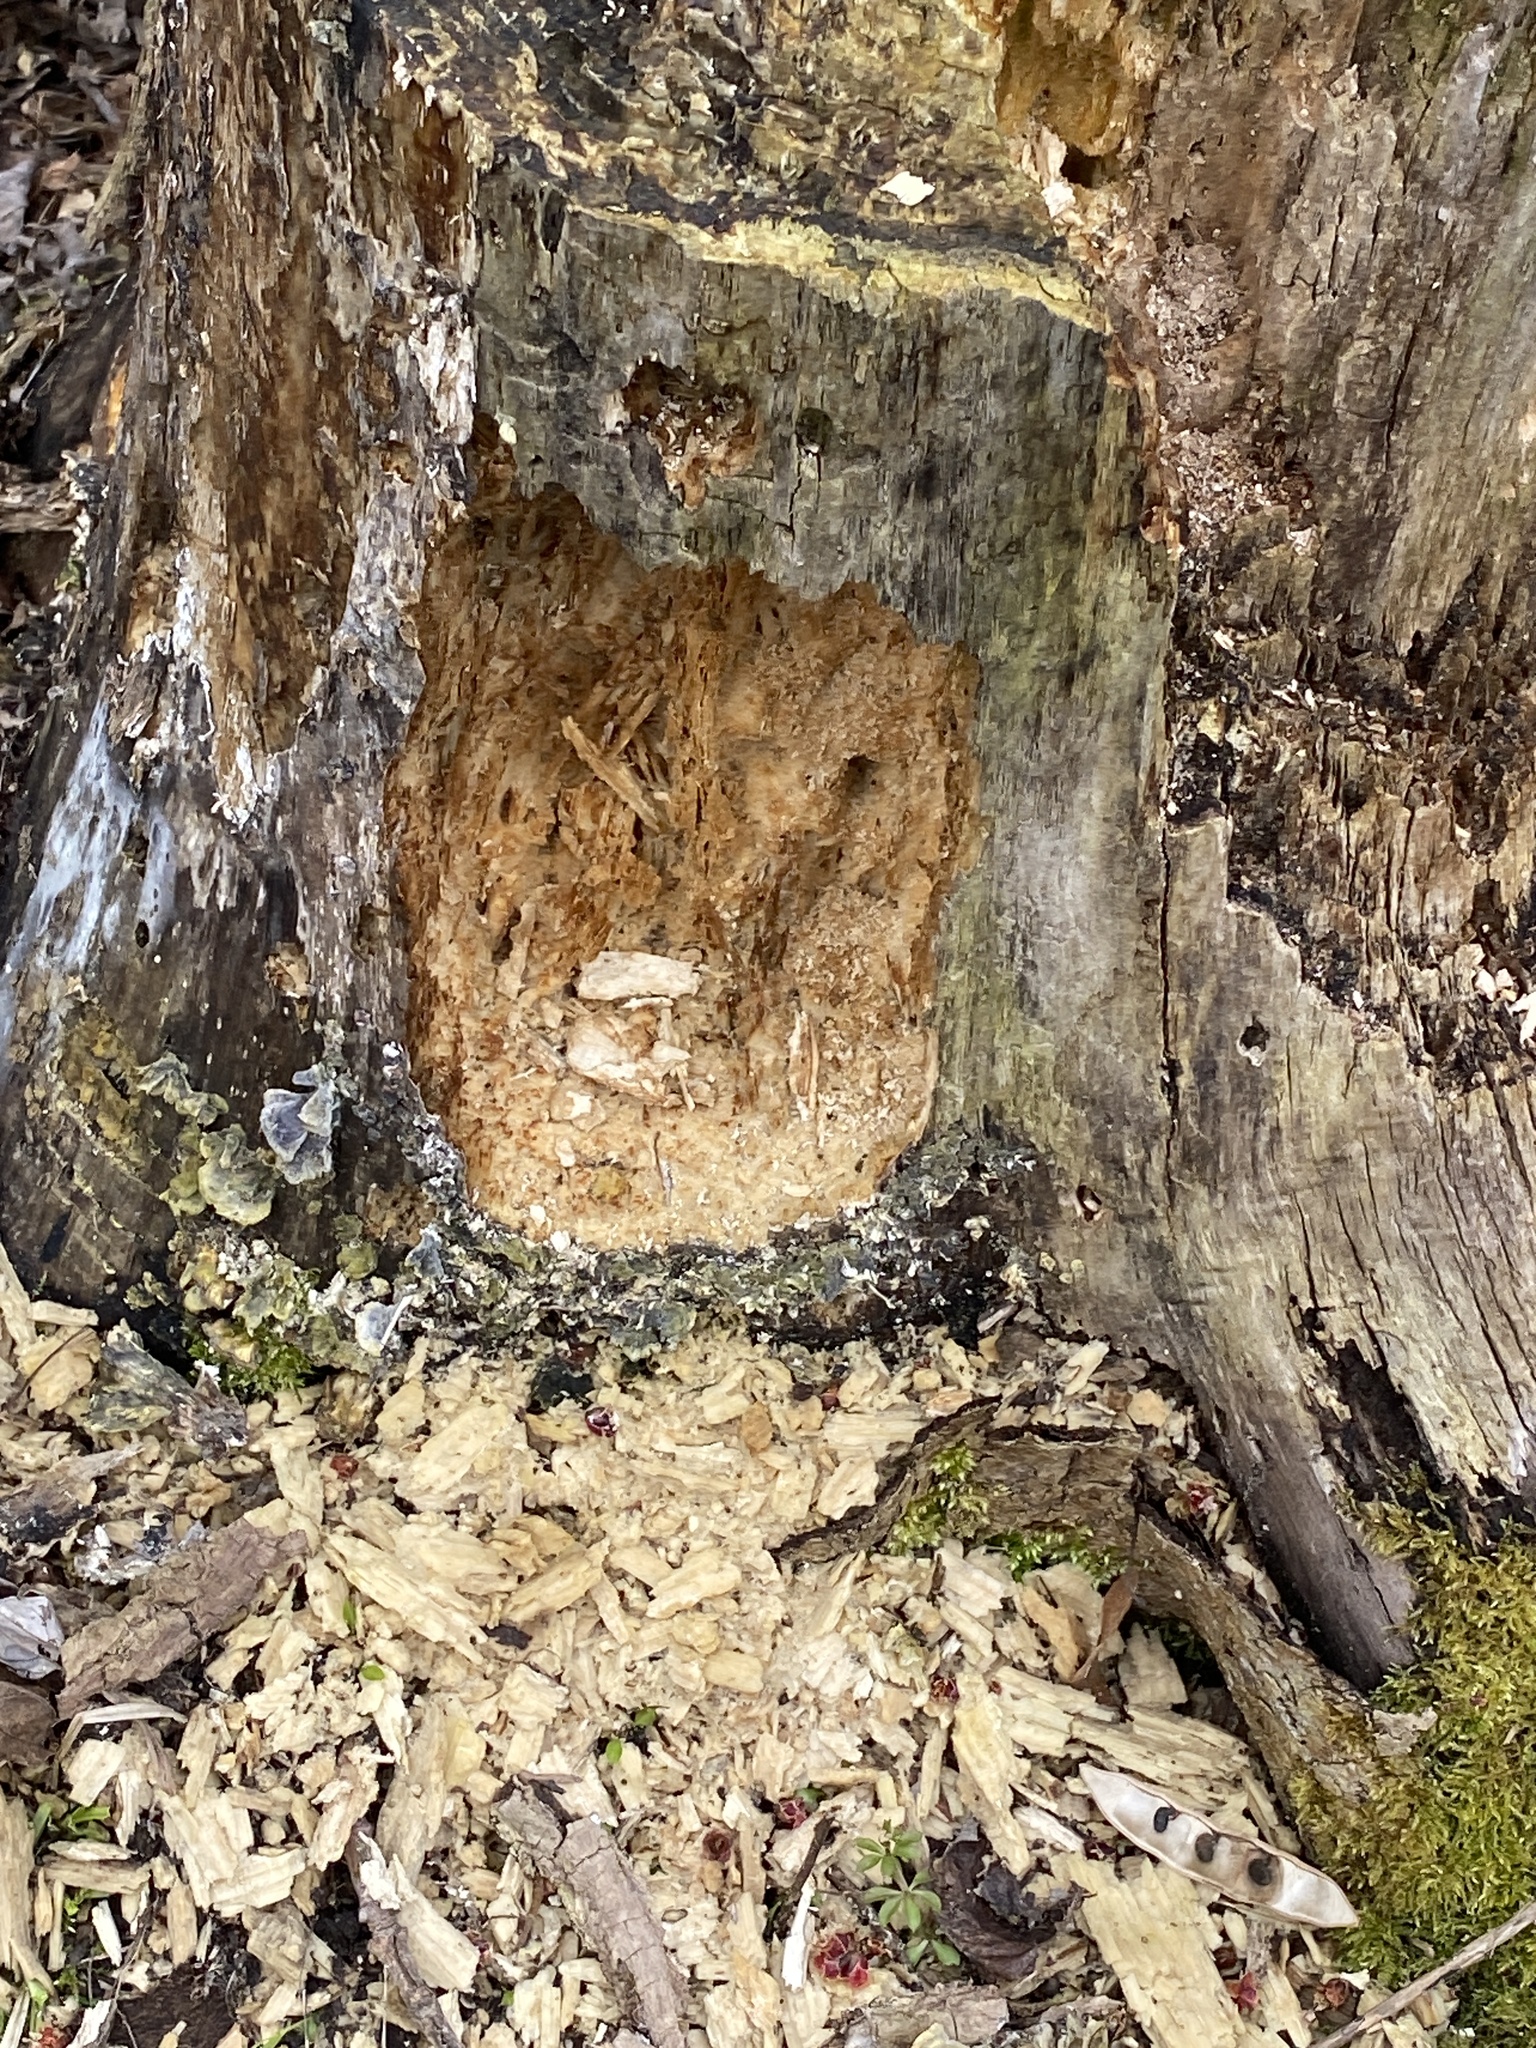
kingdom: Animalia
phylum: Chordata
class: Aves
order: Piciformes
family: Picidae
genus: Dryocopus
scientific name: Dryocopus pileatus
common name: Pileated woodpecker
